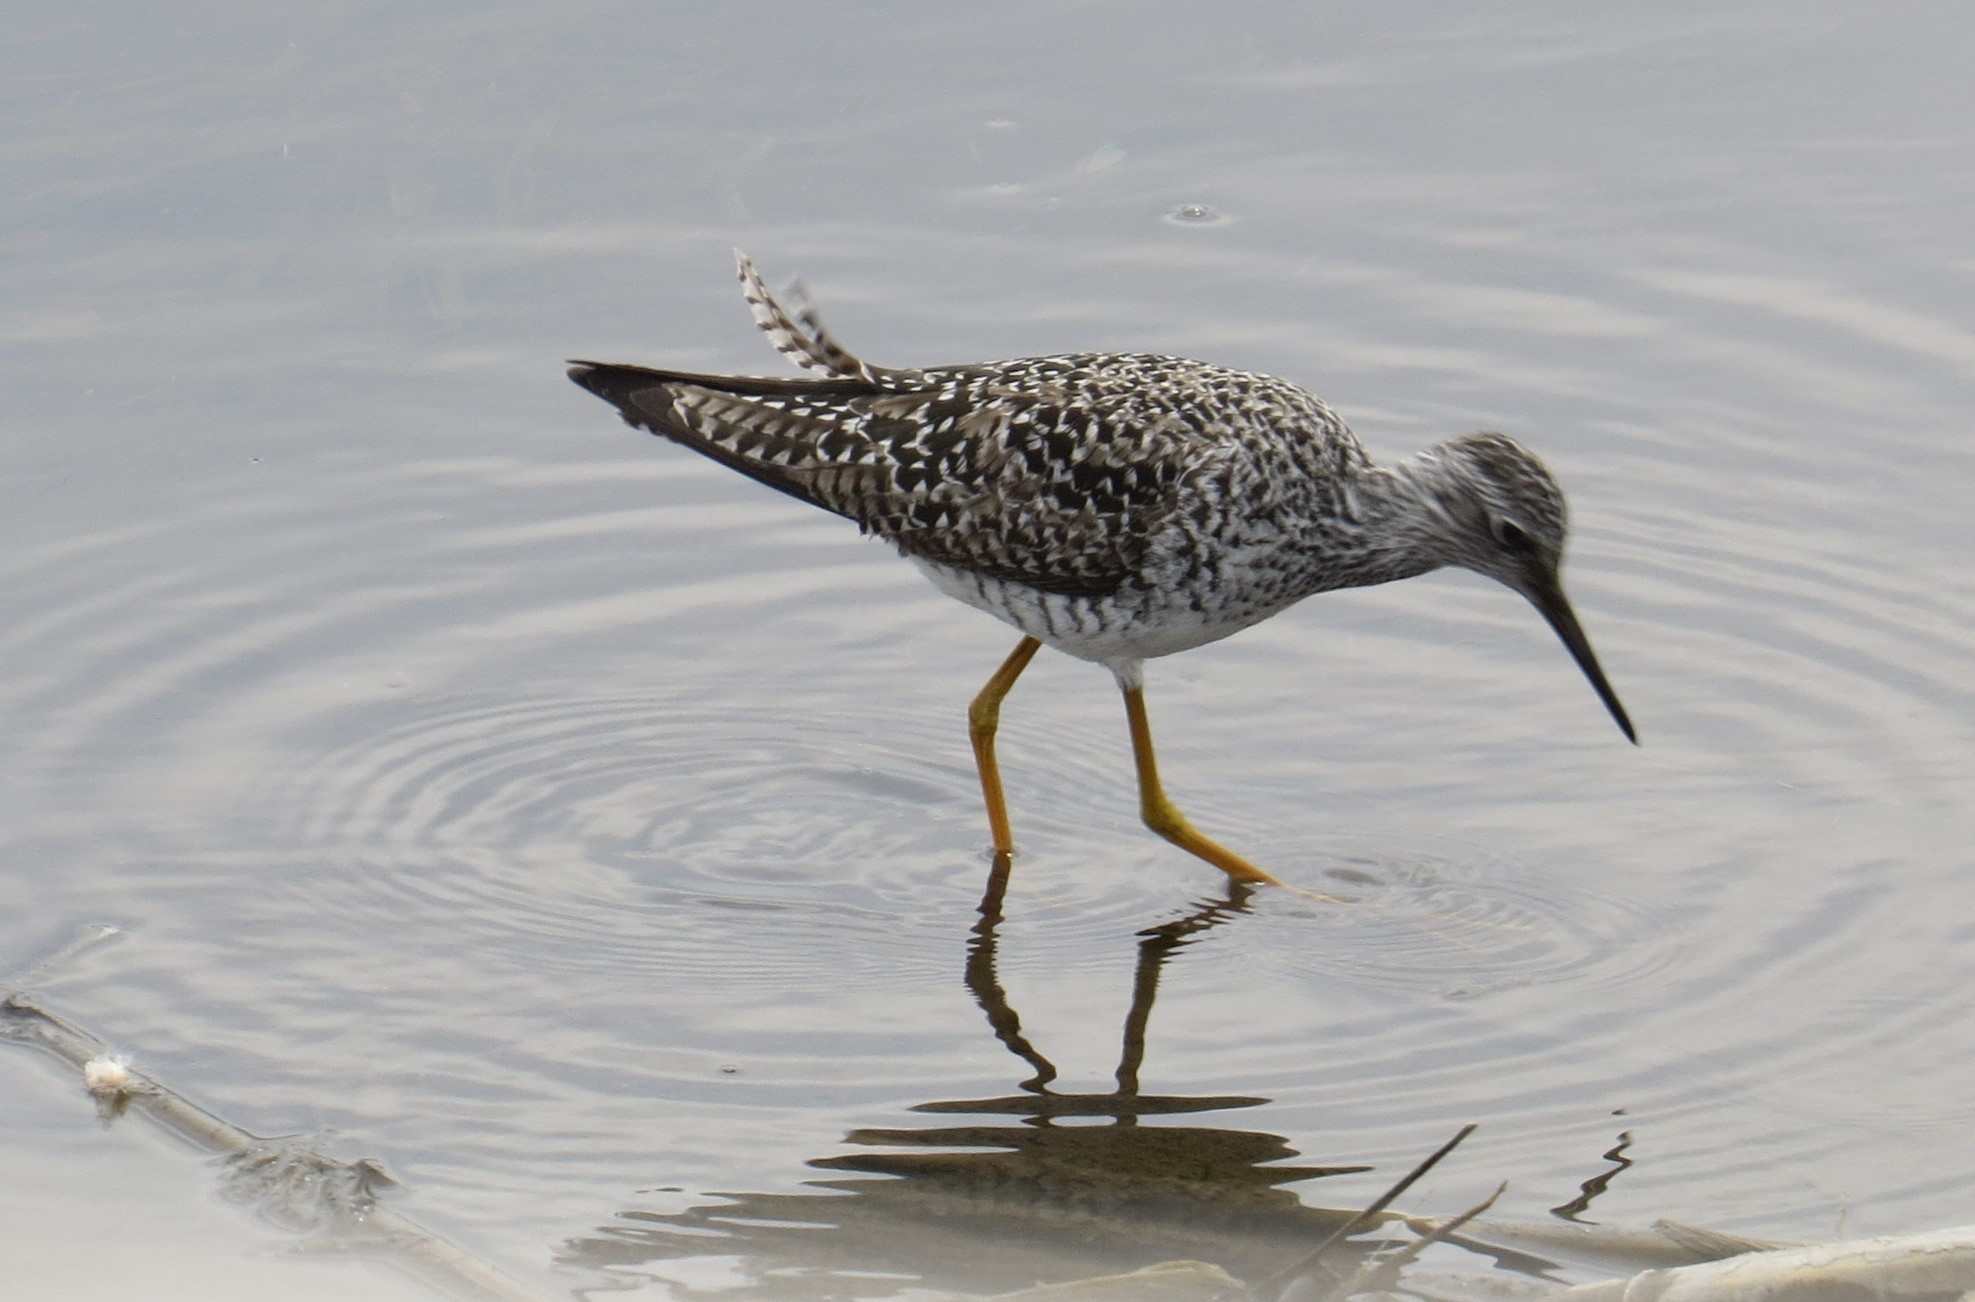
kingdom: Animalia
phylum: Chordata
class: Aves
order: Charadriiformes
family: Scolopacidae
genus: Tringa
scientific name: Tringa flavipes
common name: Lesser yellowlegs
